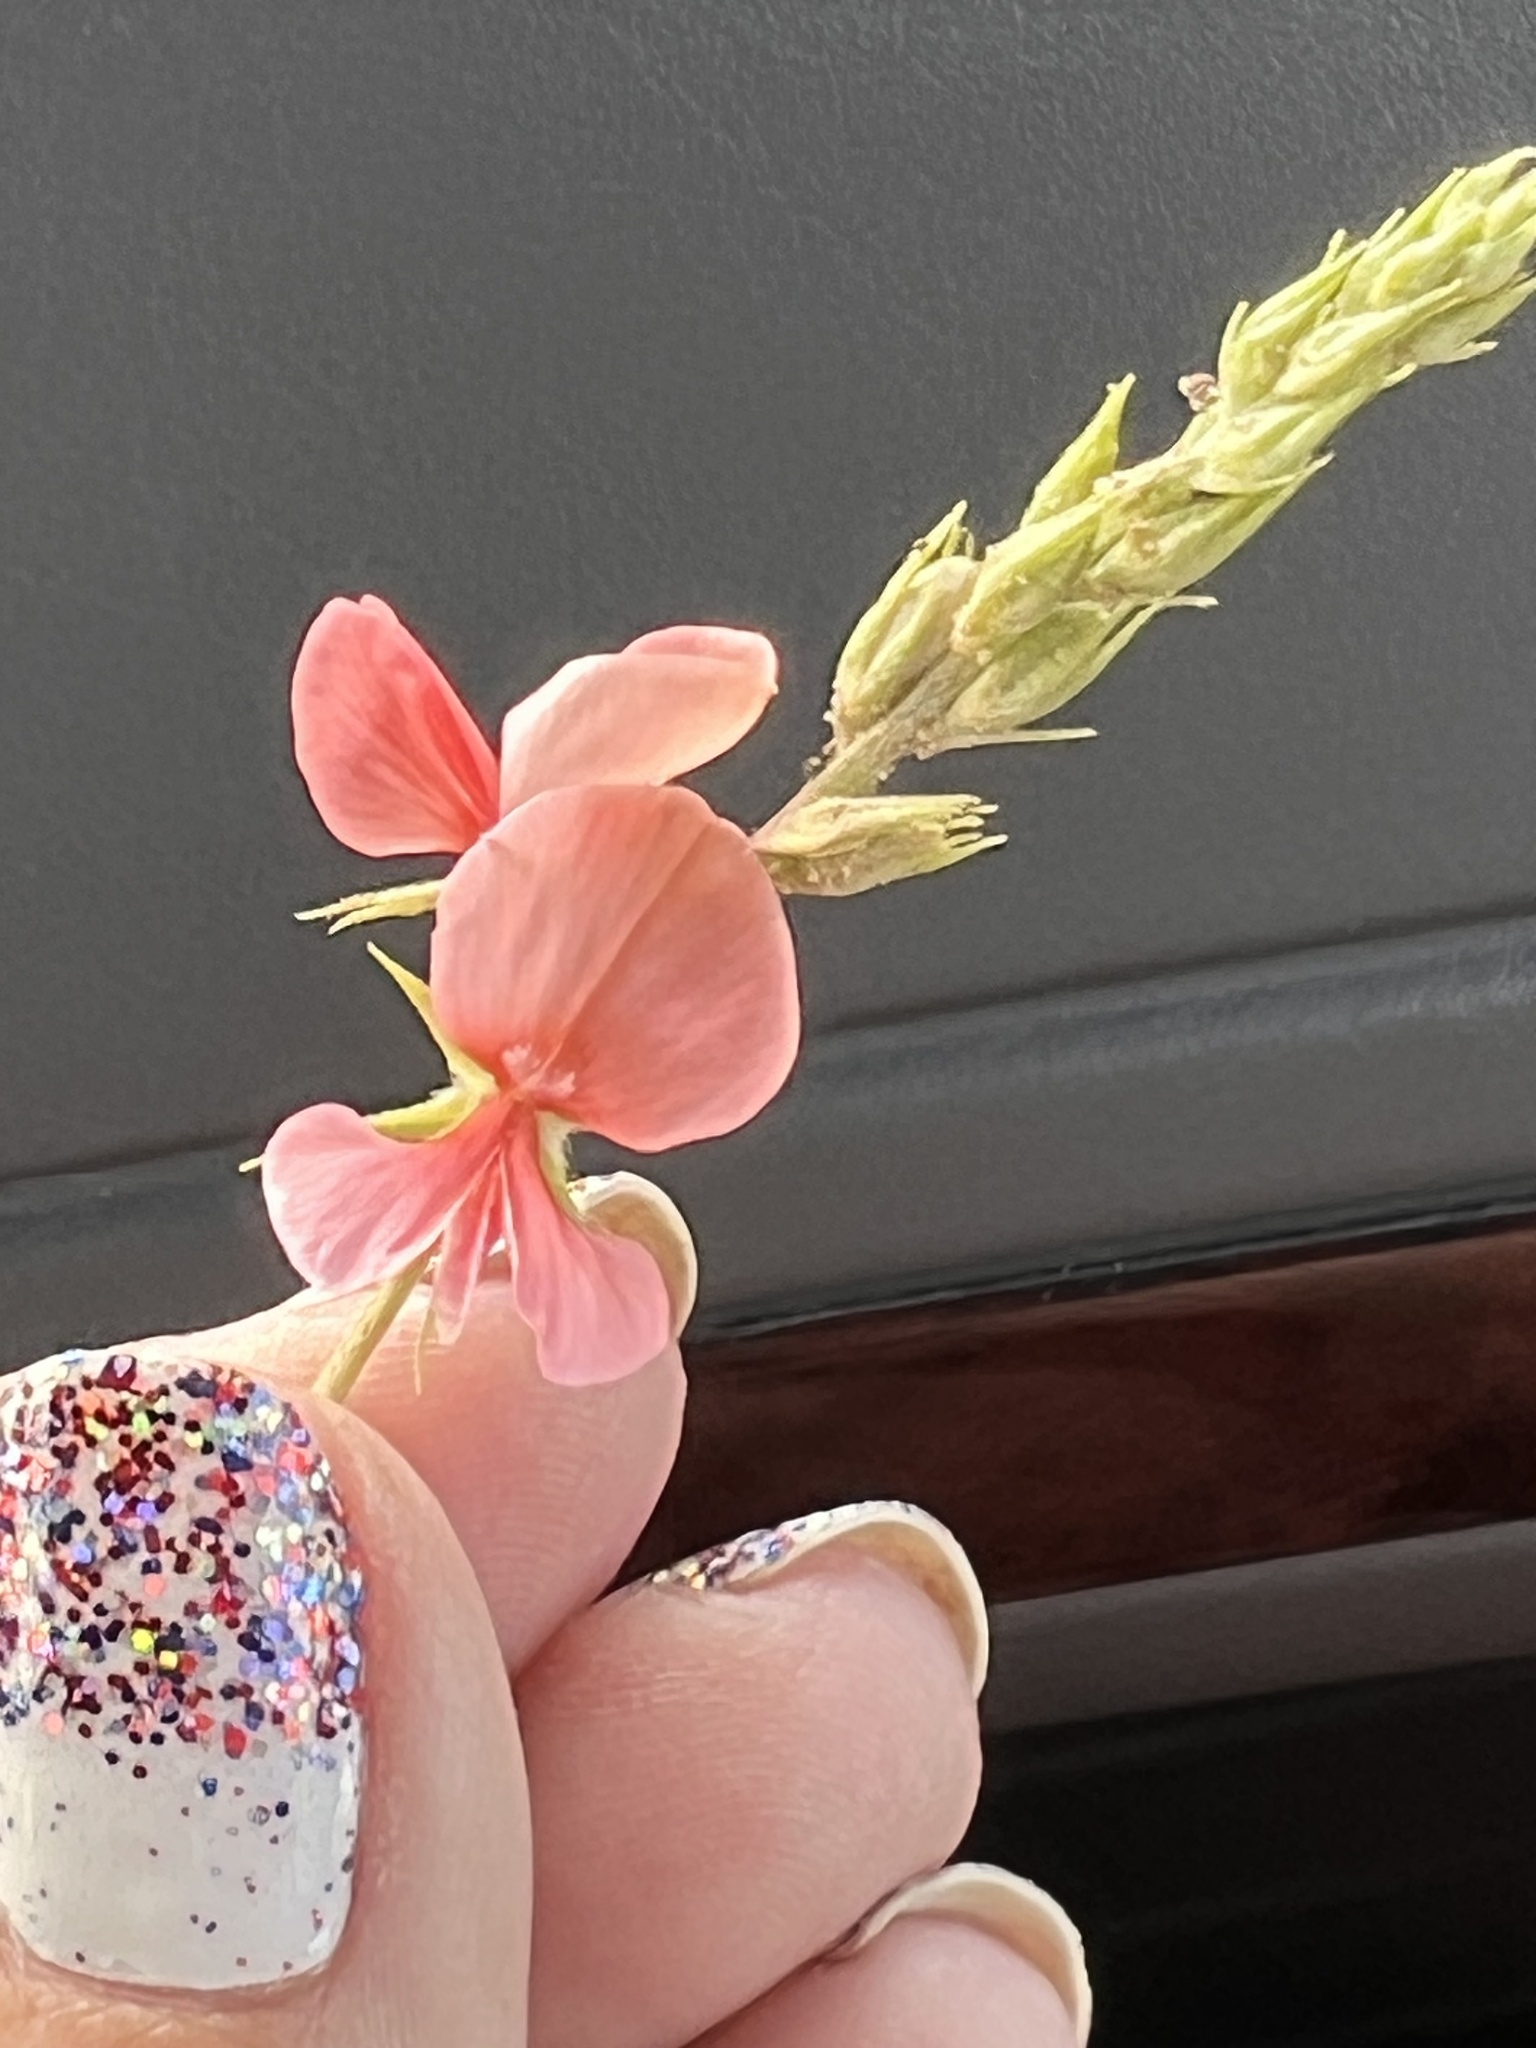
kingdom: Plantae
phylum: Tracheophyta
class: Magnoliopsida
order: Fabales
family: Fabaceae
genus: Indigofera
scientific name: Indigofera miniata
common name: Coast indigo
